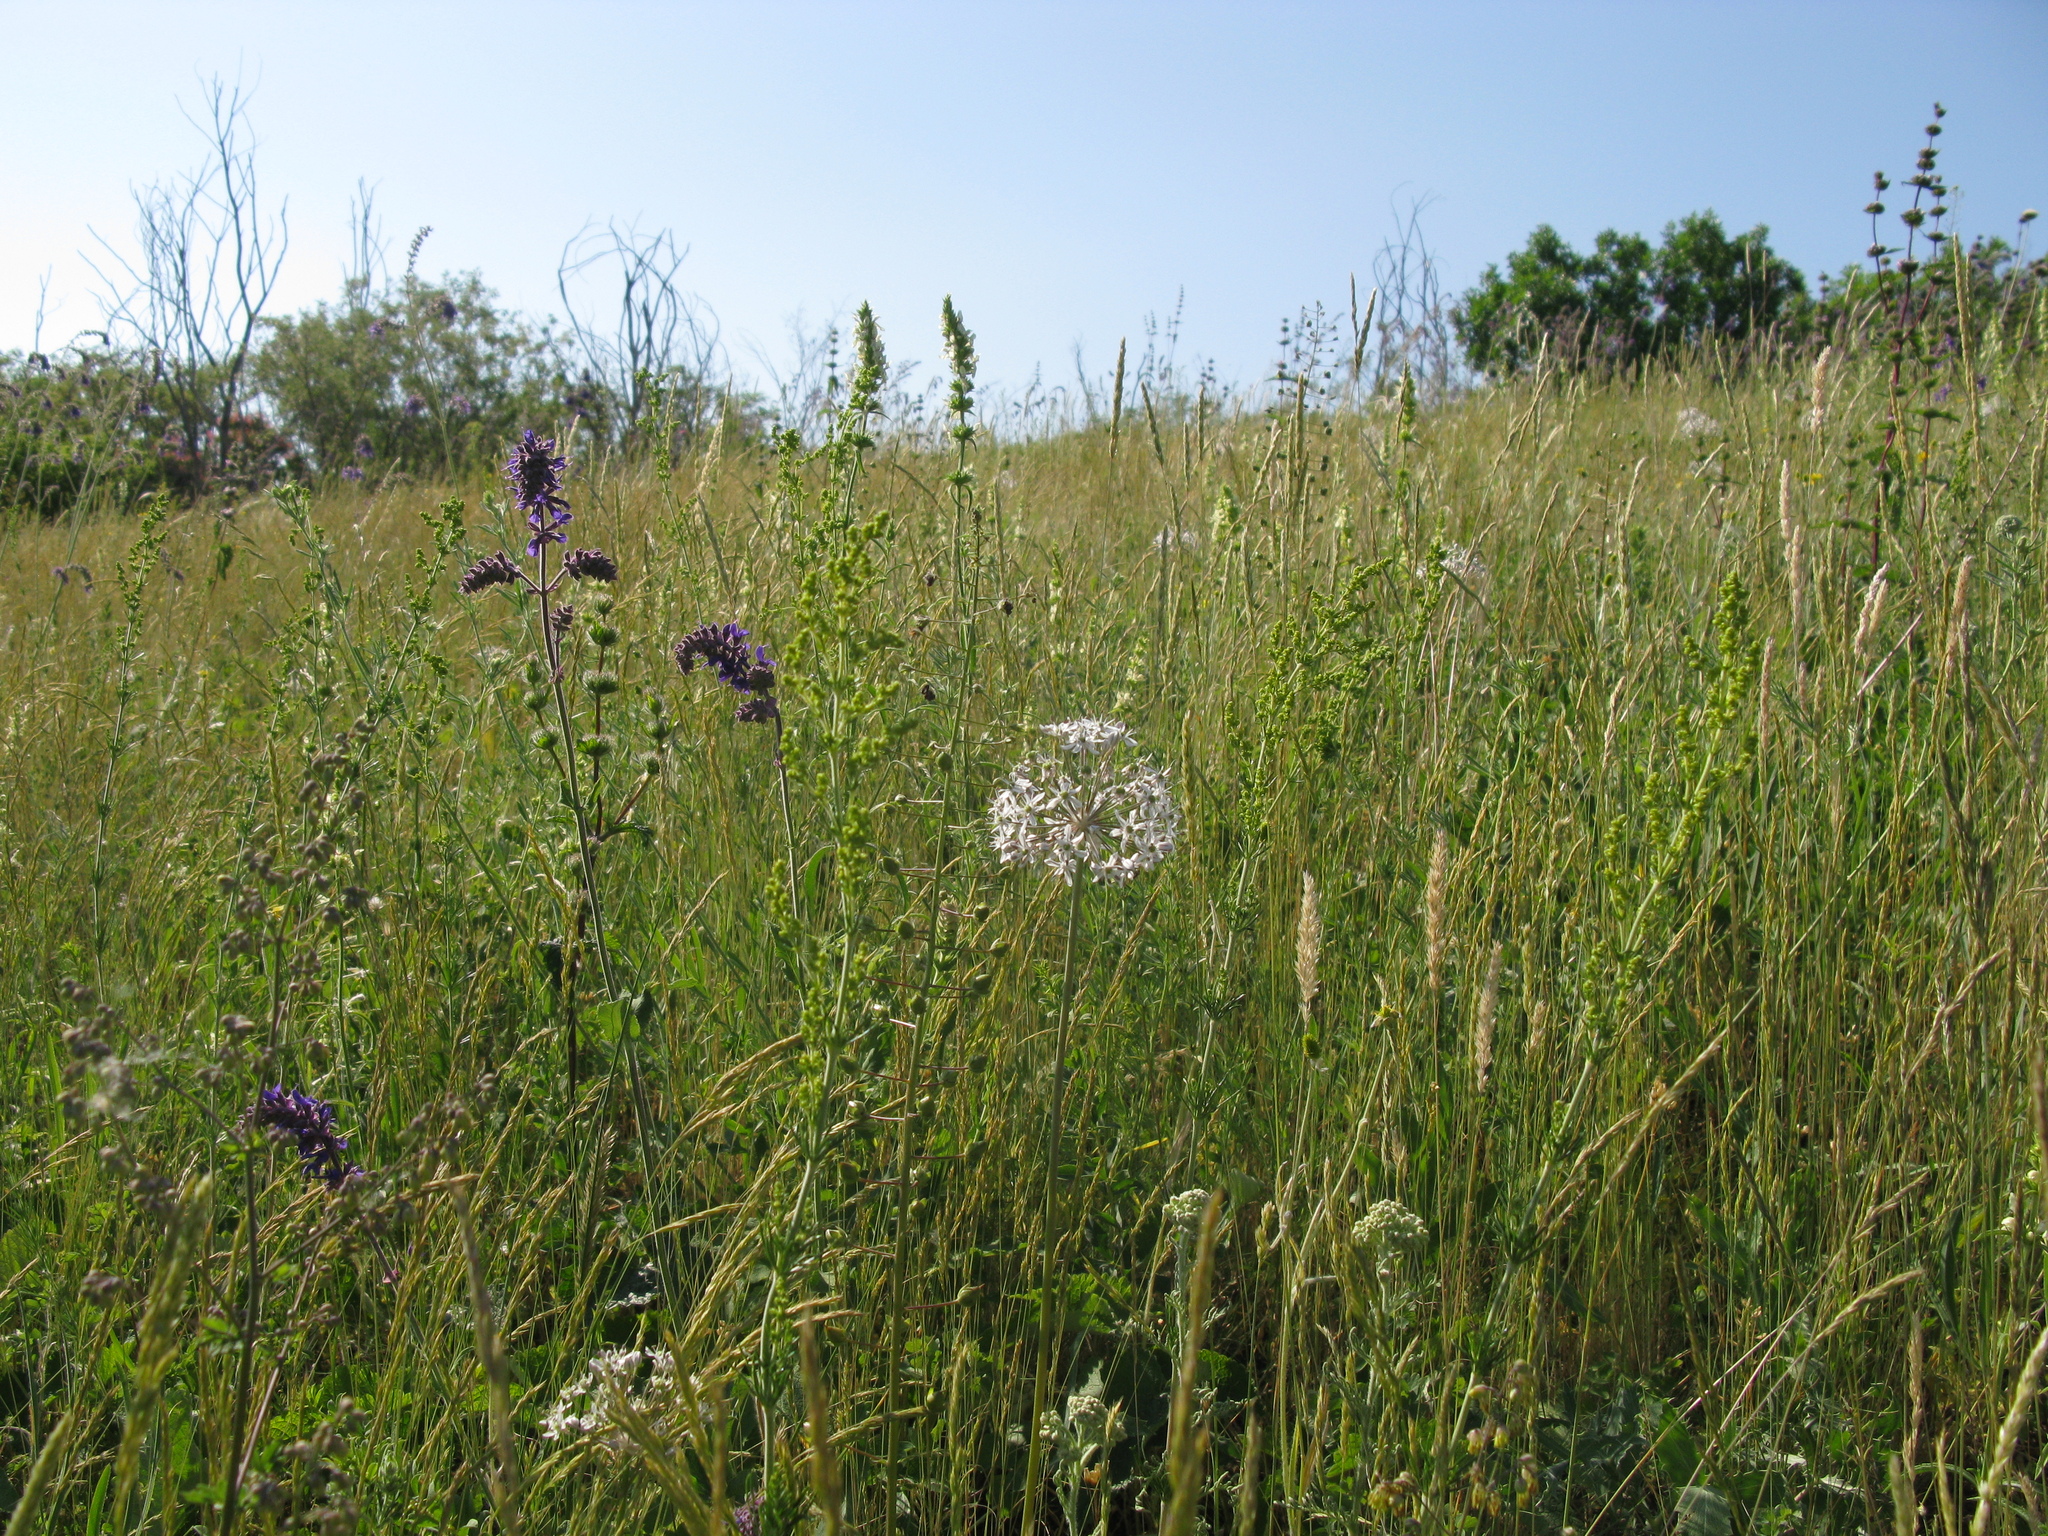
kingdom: Plantae
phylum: Tracheophyta
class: Liliopsida
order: Asparagales
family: Amaryllidaceae
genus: Allium
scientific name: Allium decipiens
